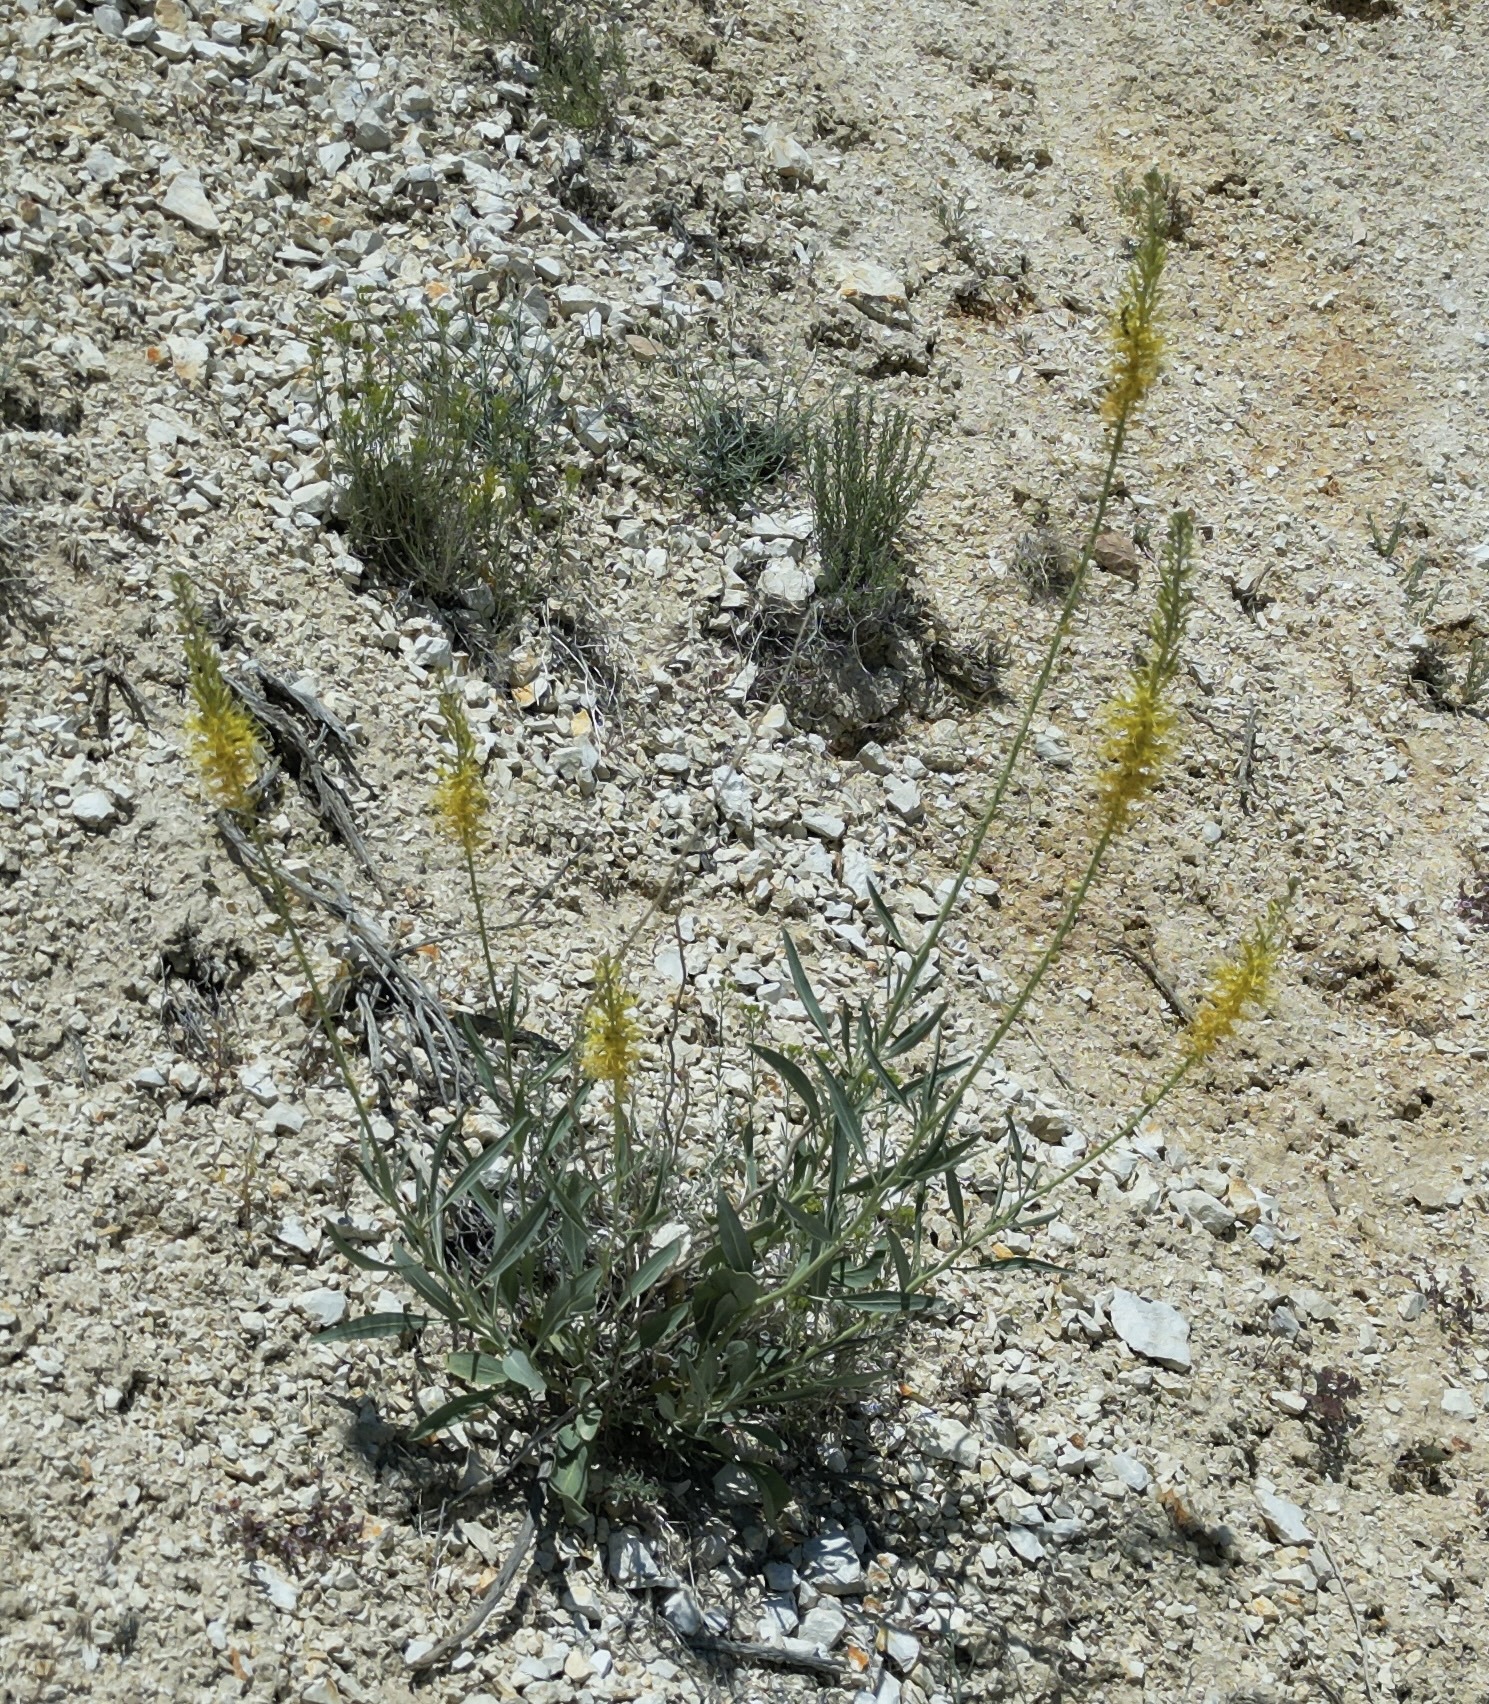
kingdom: Plantae
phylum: Tracheophyta
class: Magnoliopsida
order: Brassicales
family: Brassicaceae
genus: Stanleya
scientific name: Stanleya pinnata
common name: Prince's-plume
